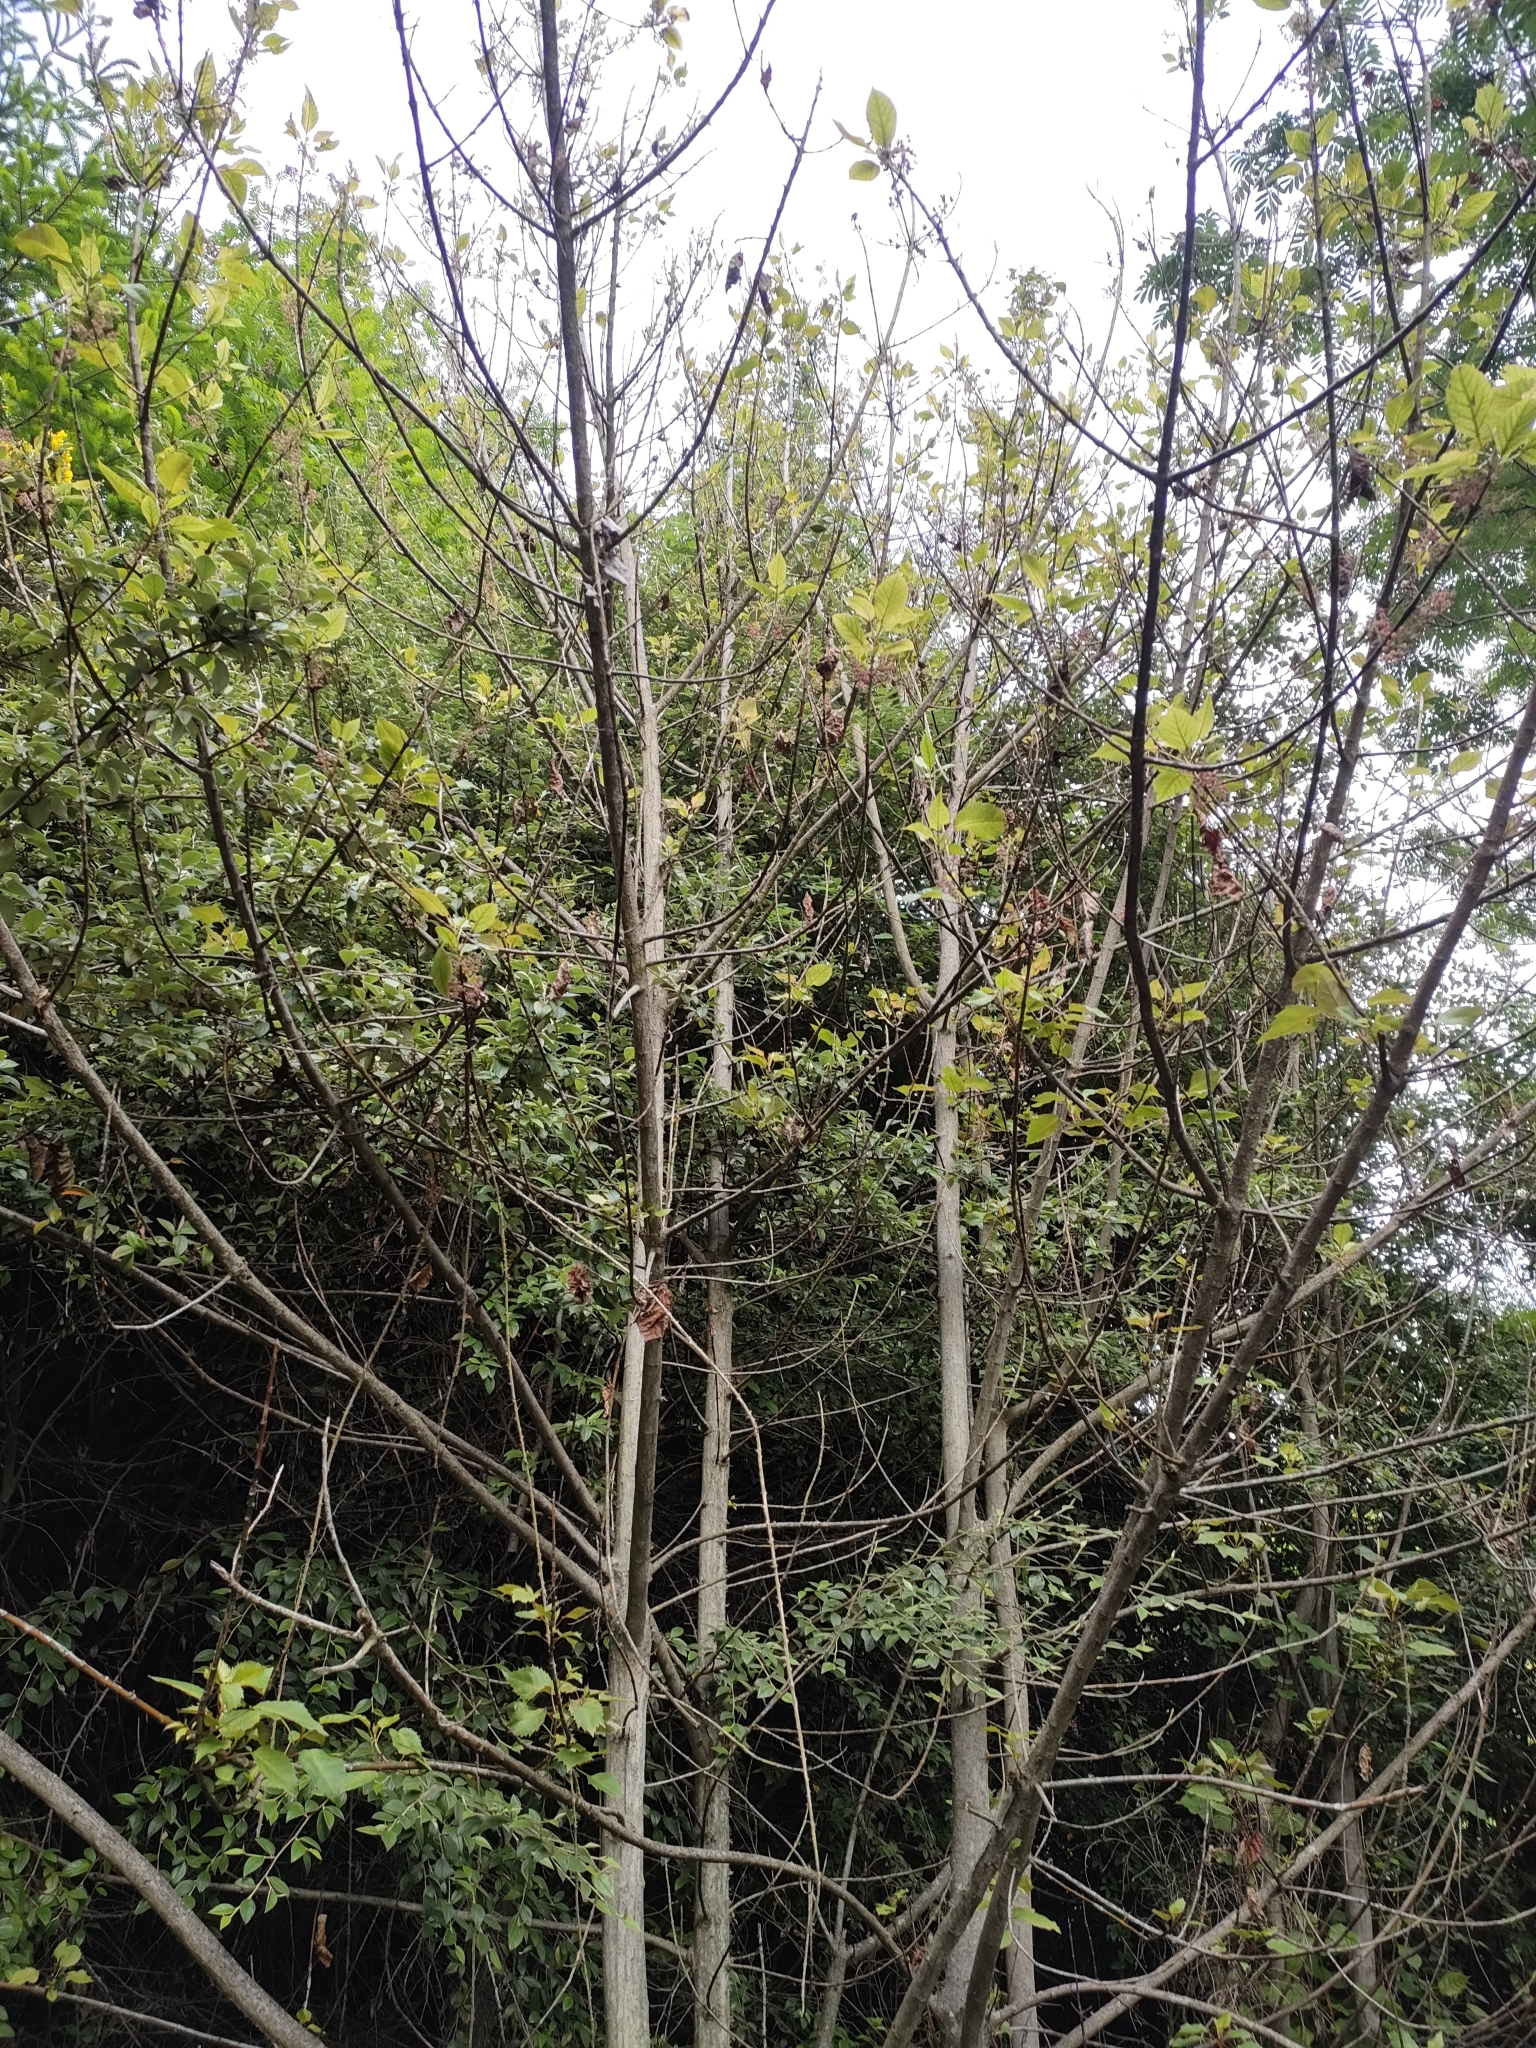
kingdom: Plantae
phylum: Tracheophyta
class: Magnoliopsida
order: Oxalidales
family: Elaeocarpaceae
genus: Aristotelia
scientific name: Aristotelia serrata
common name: New zealand wineberry
